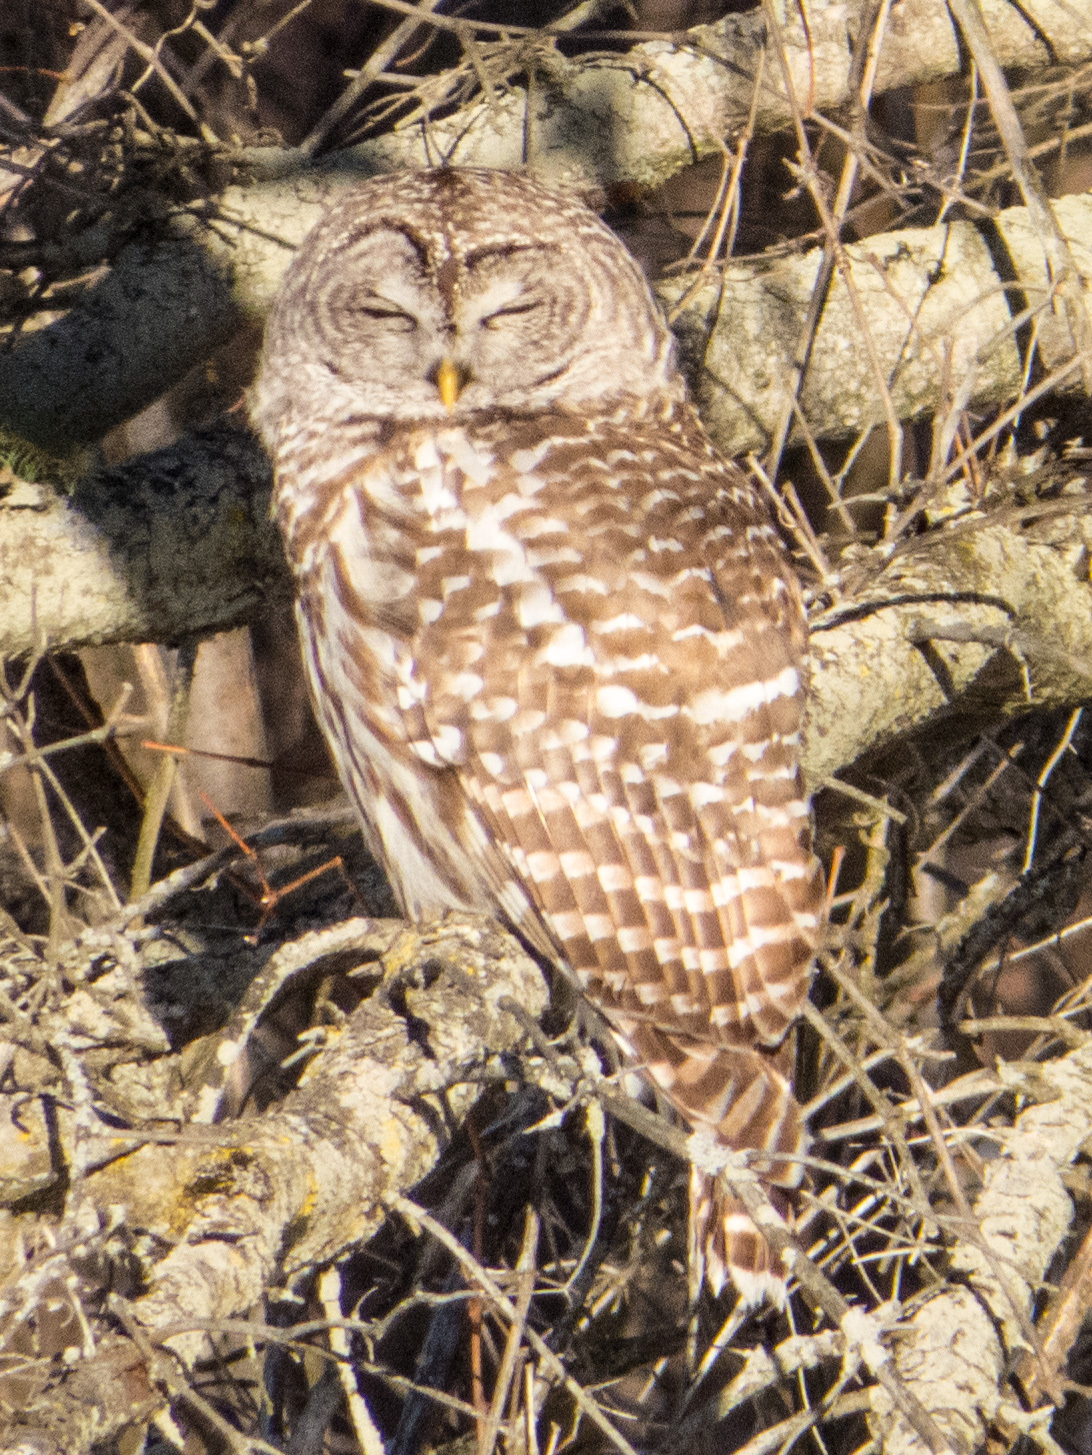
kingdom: Animalia
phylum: Chordata
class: Aves
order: Strigiformes
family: Strigidae
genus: Strix
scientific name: Strix varia
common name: Barred owl
